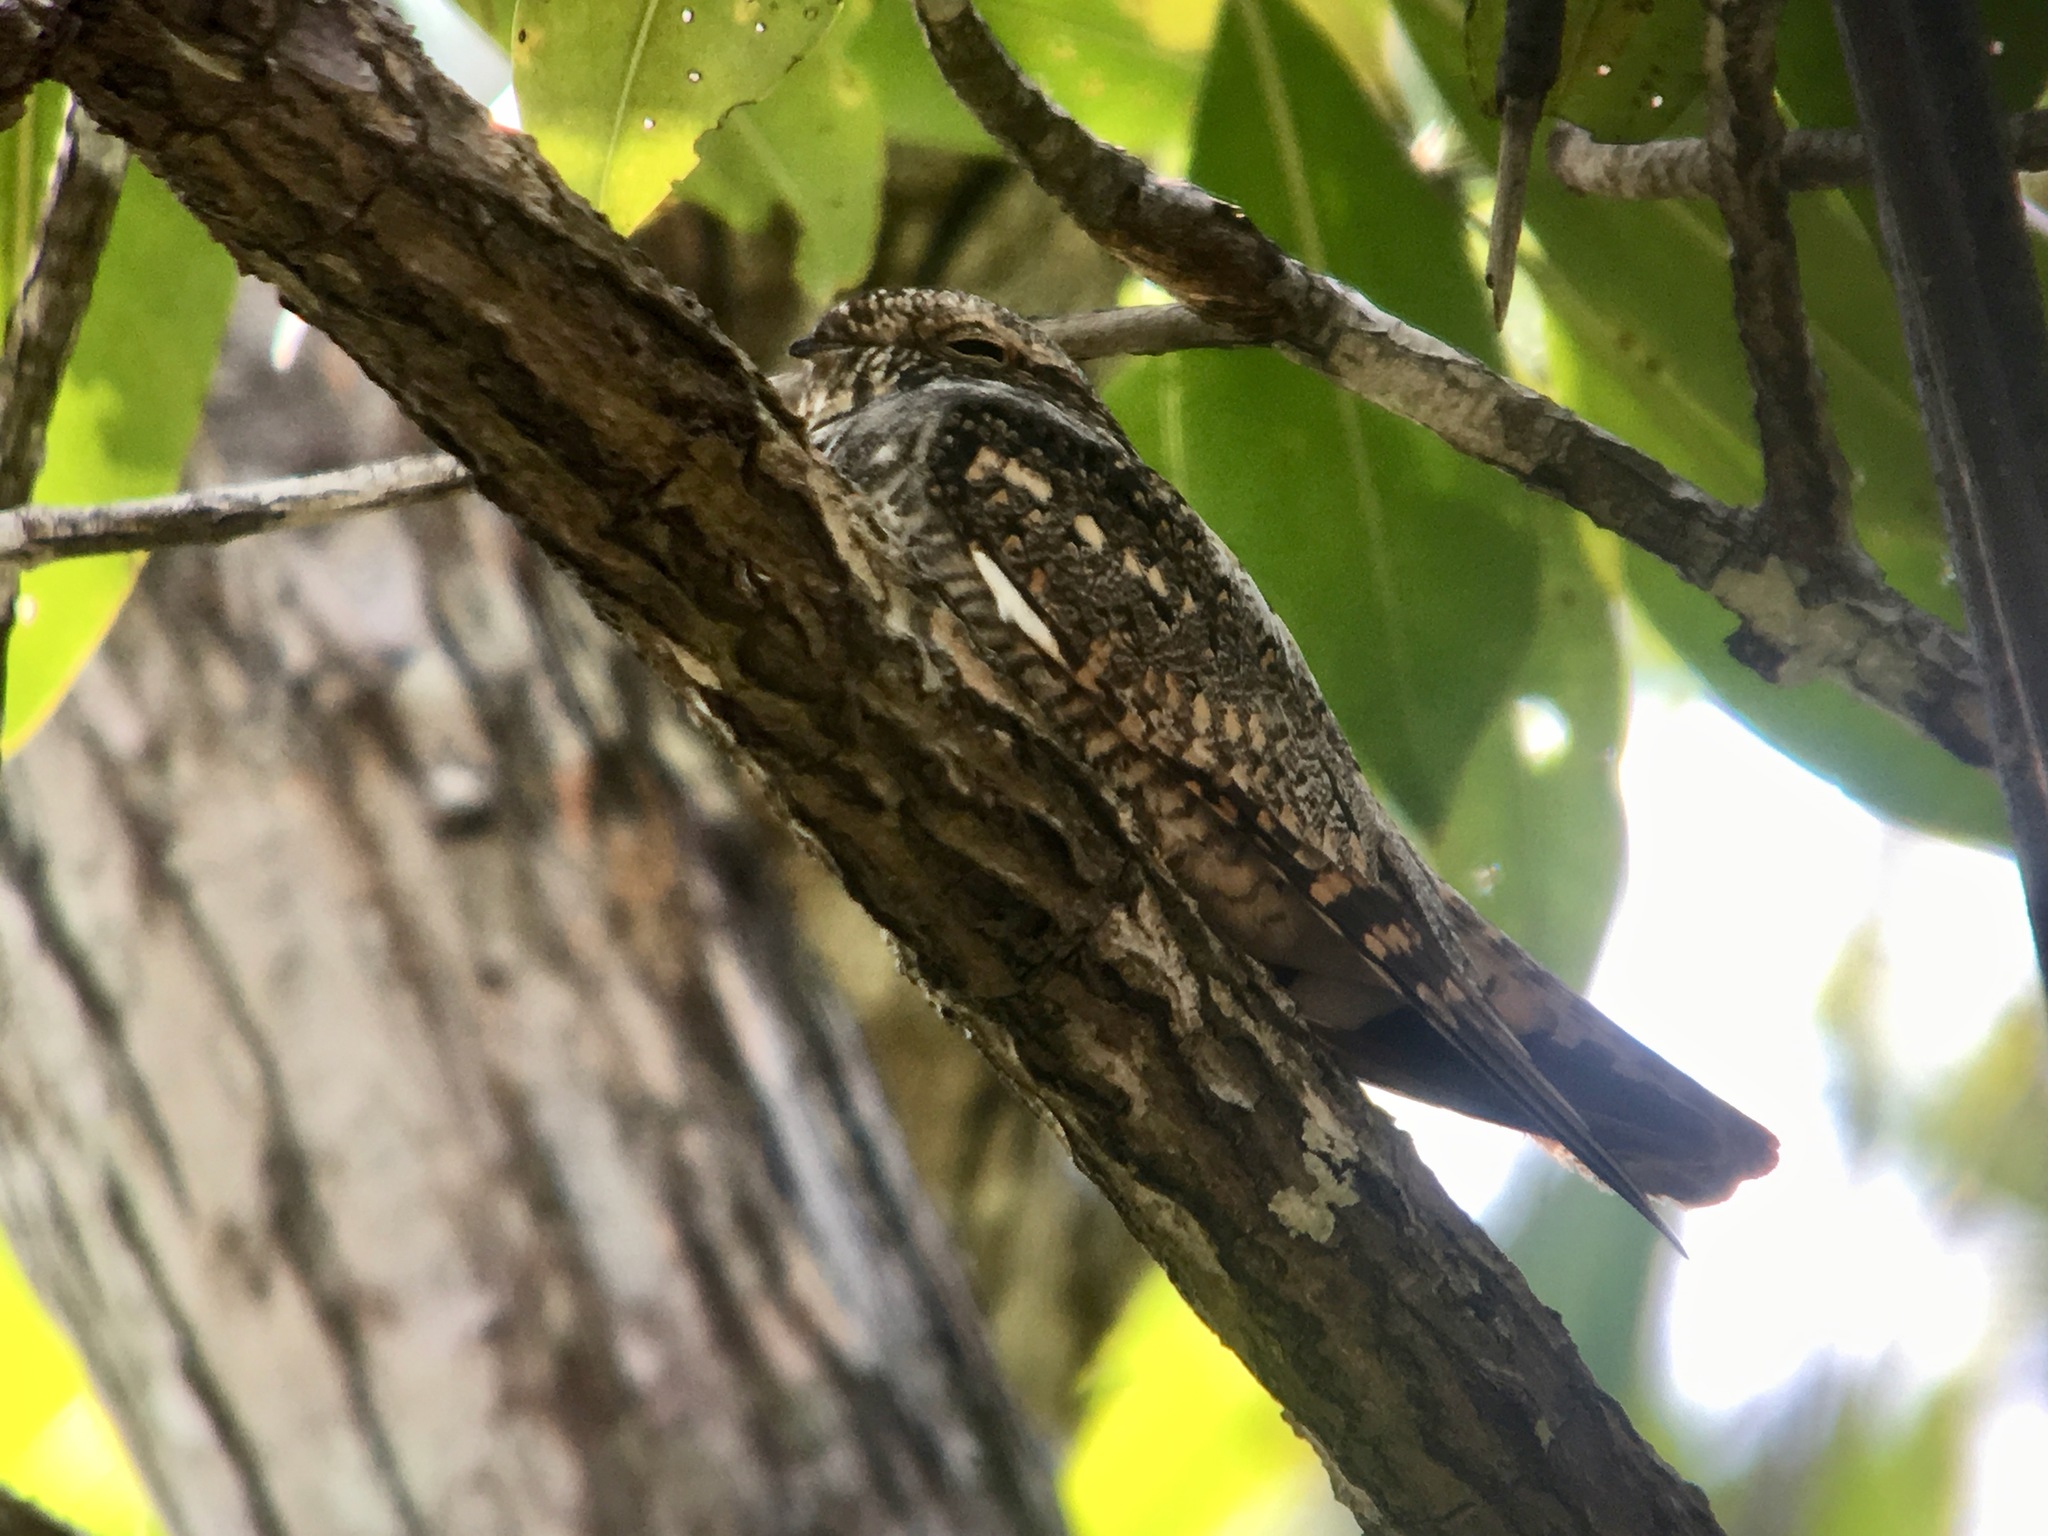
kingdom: Animalia
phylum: Chordata
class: Aves
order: Caprimulgiformes
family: Caprimulgidae
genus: Chordeiles
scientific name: Chordeiles acutipennis
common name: Lesser nighthawk
